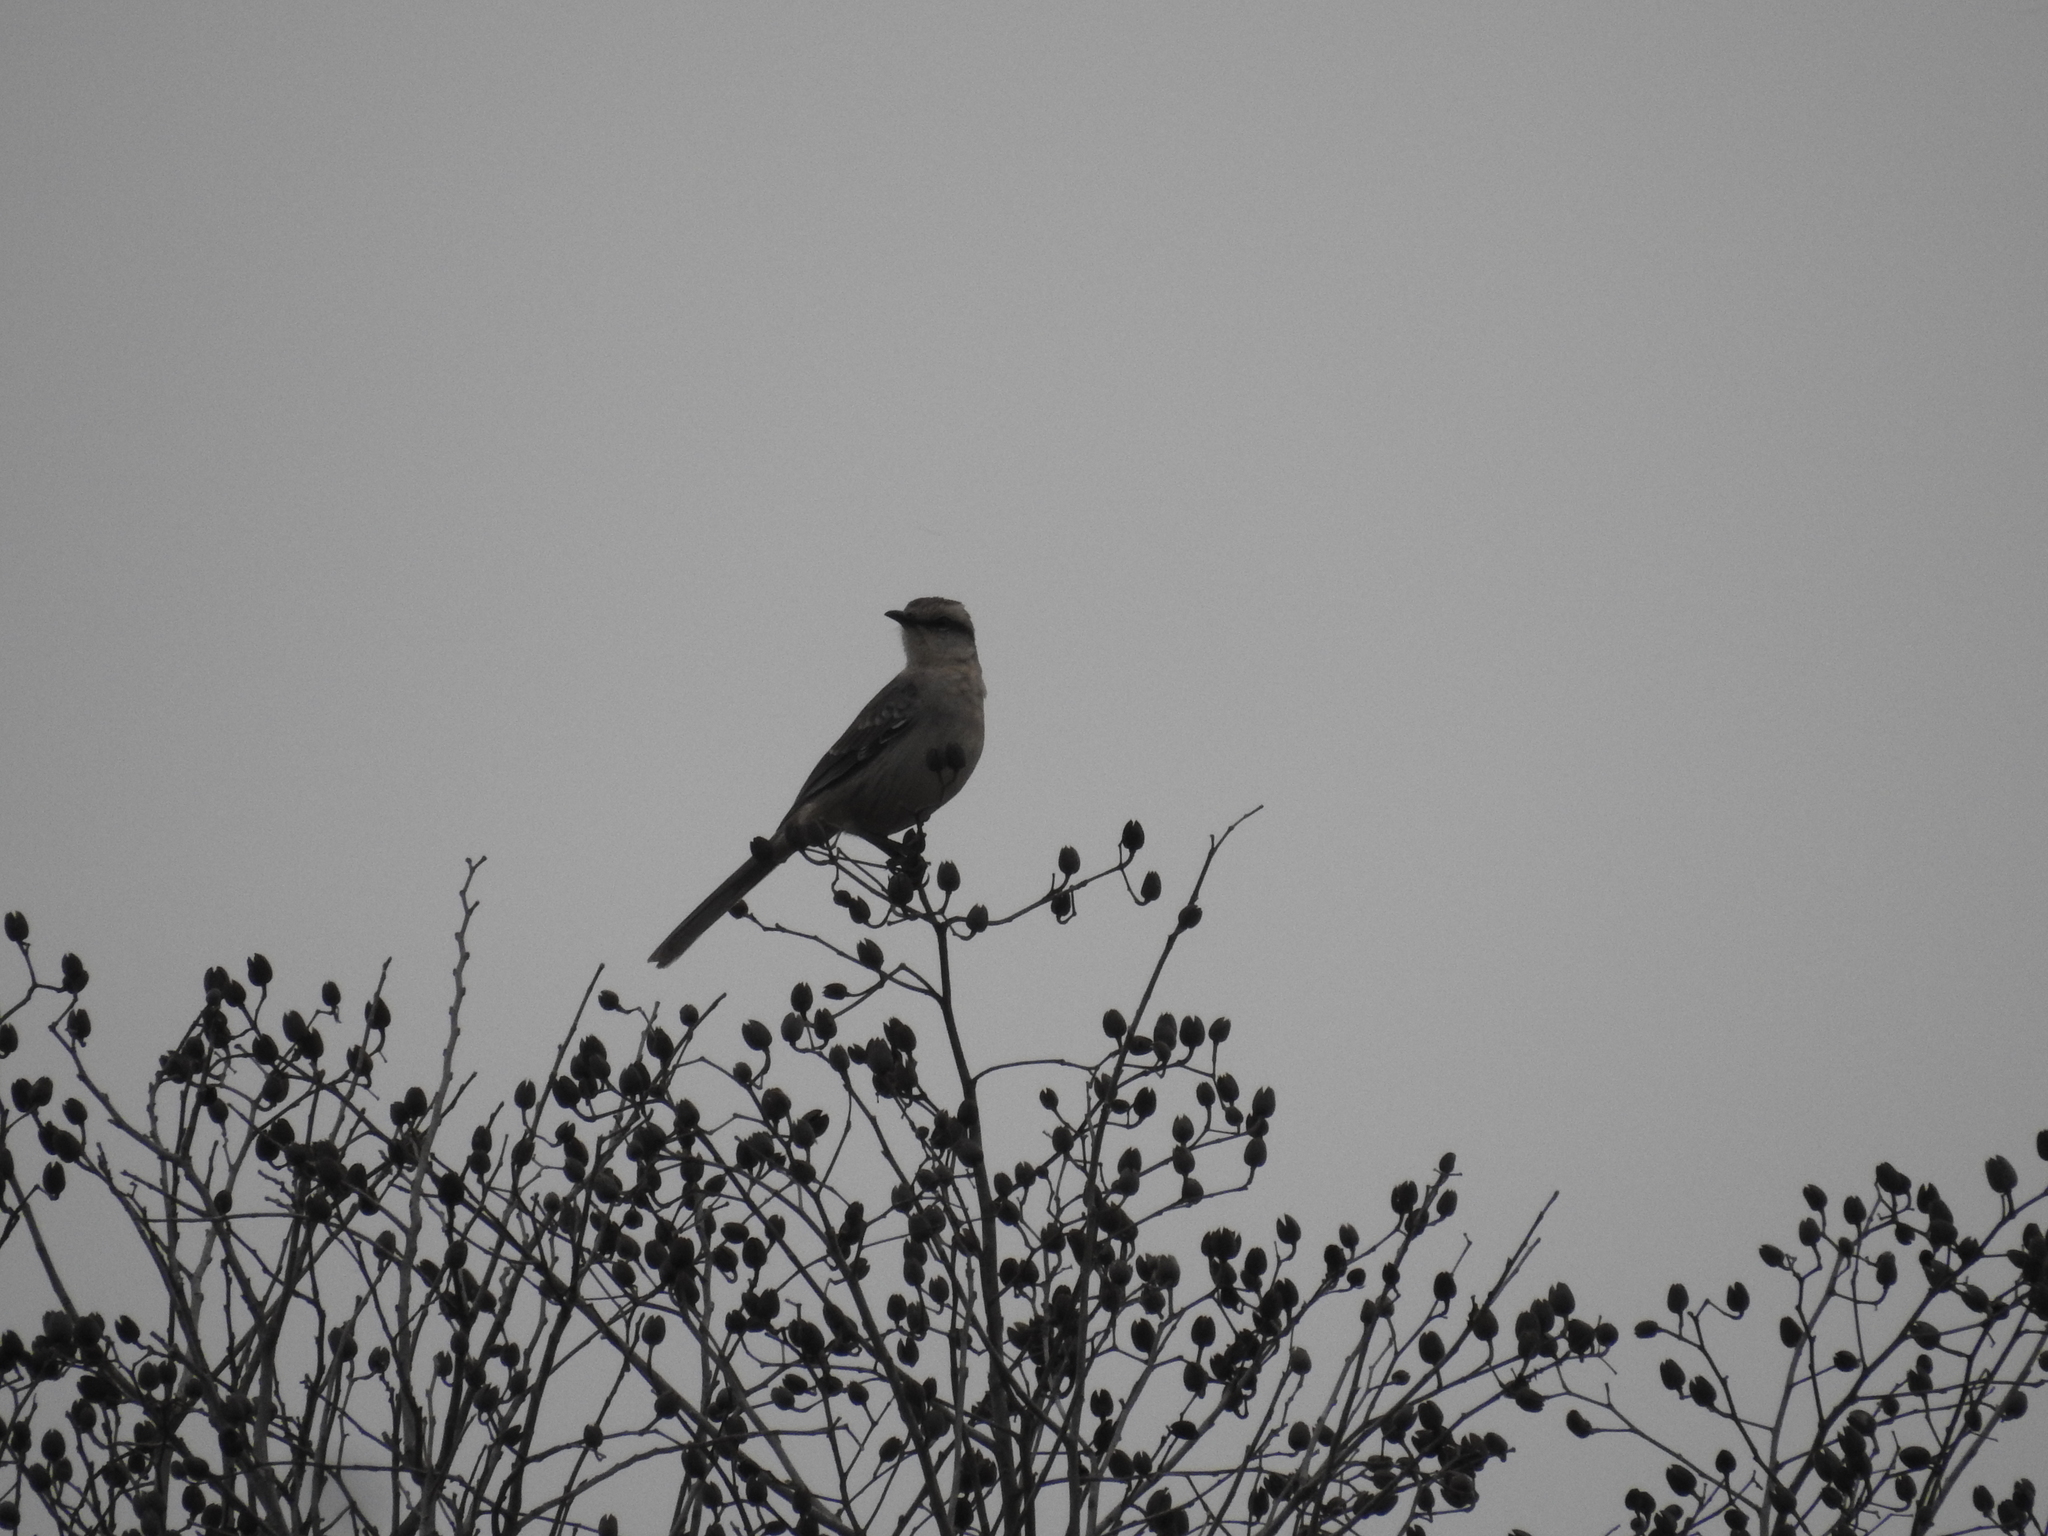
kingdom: Animalia
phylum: Chordata
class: Aves
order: Passeriformes
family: Mimidae
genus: Mimus
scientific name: Mimus saturninus
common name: Chalk-browed mockingbird
